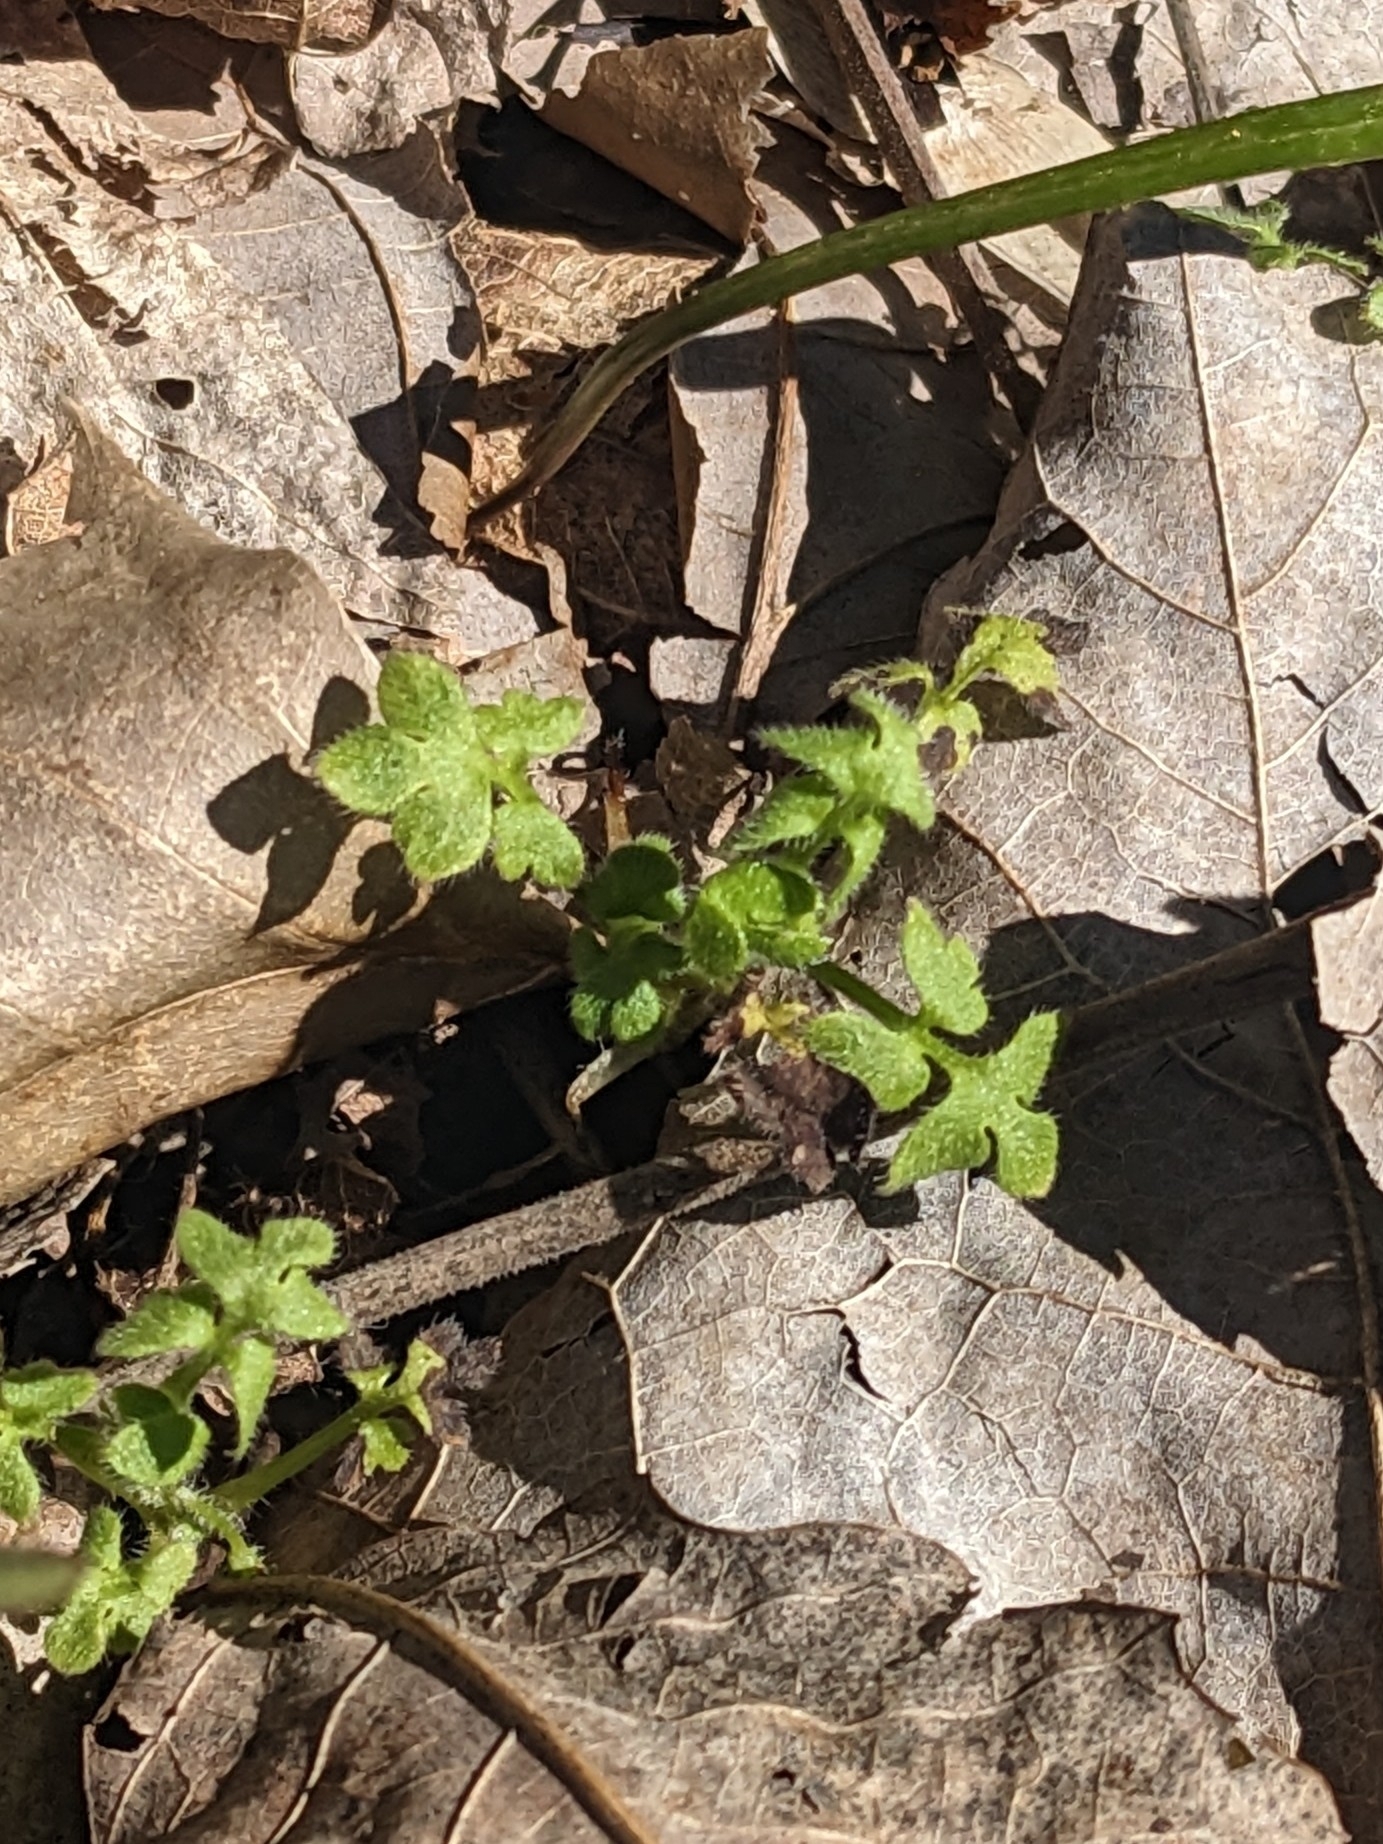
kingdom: Plantae
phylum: Tracheophyta
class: Magnoliopsida
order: Boraginales
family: Hydrophyllaceae
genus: Nemophila
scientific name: Nemophila aphylla
